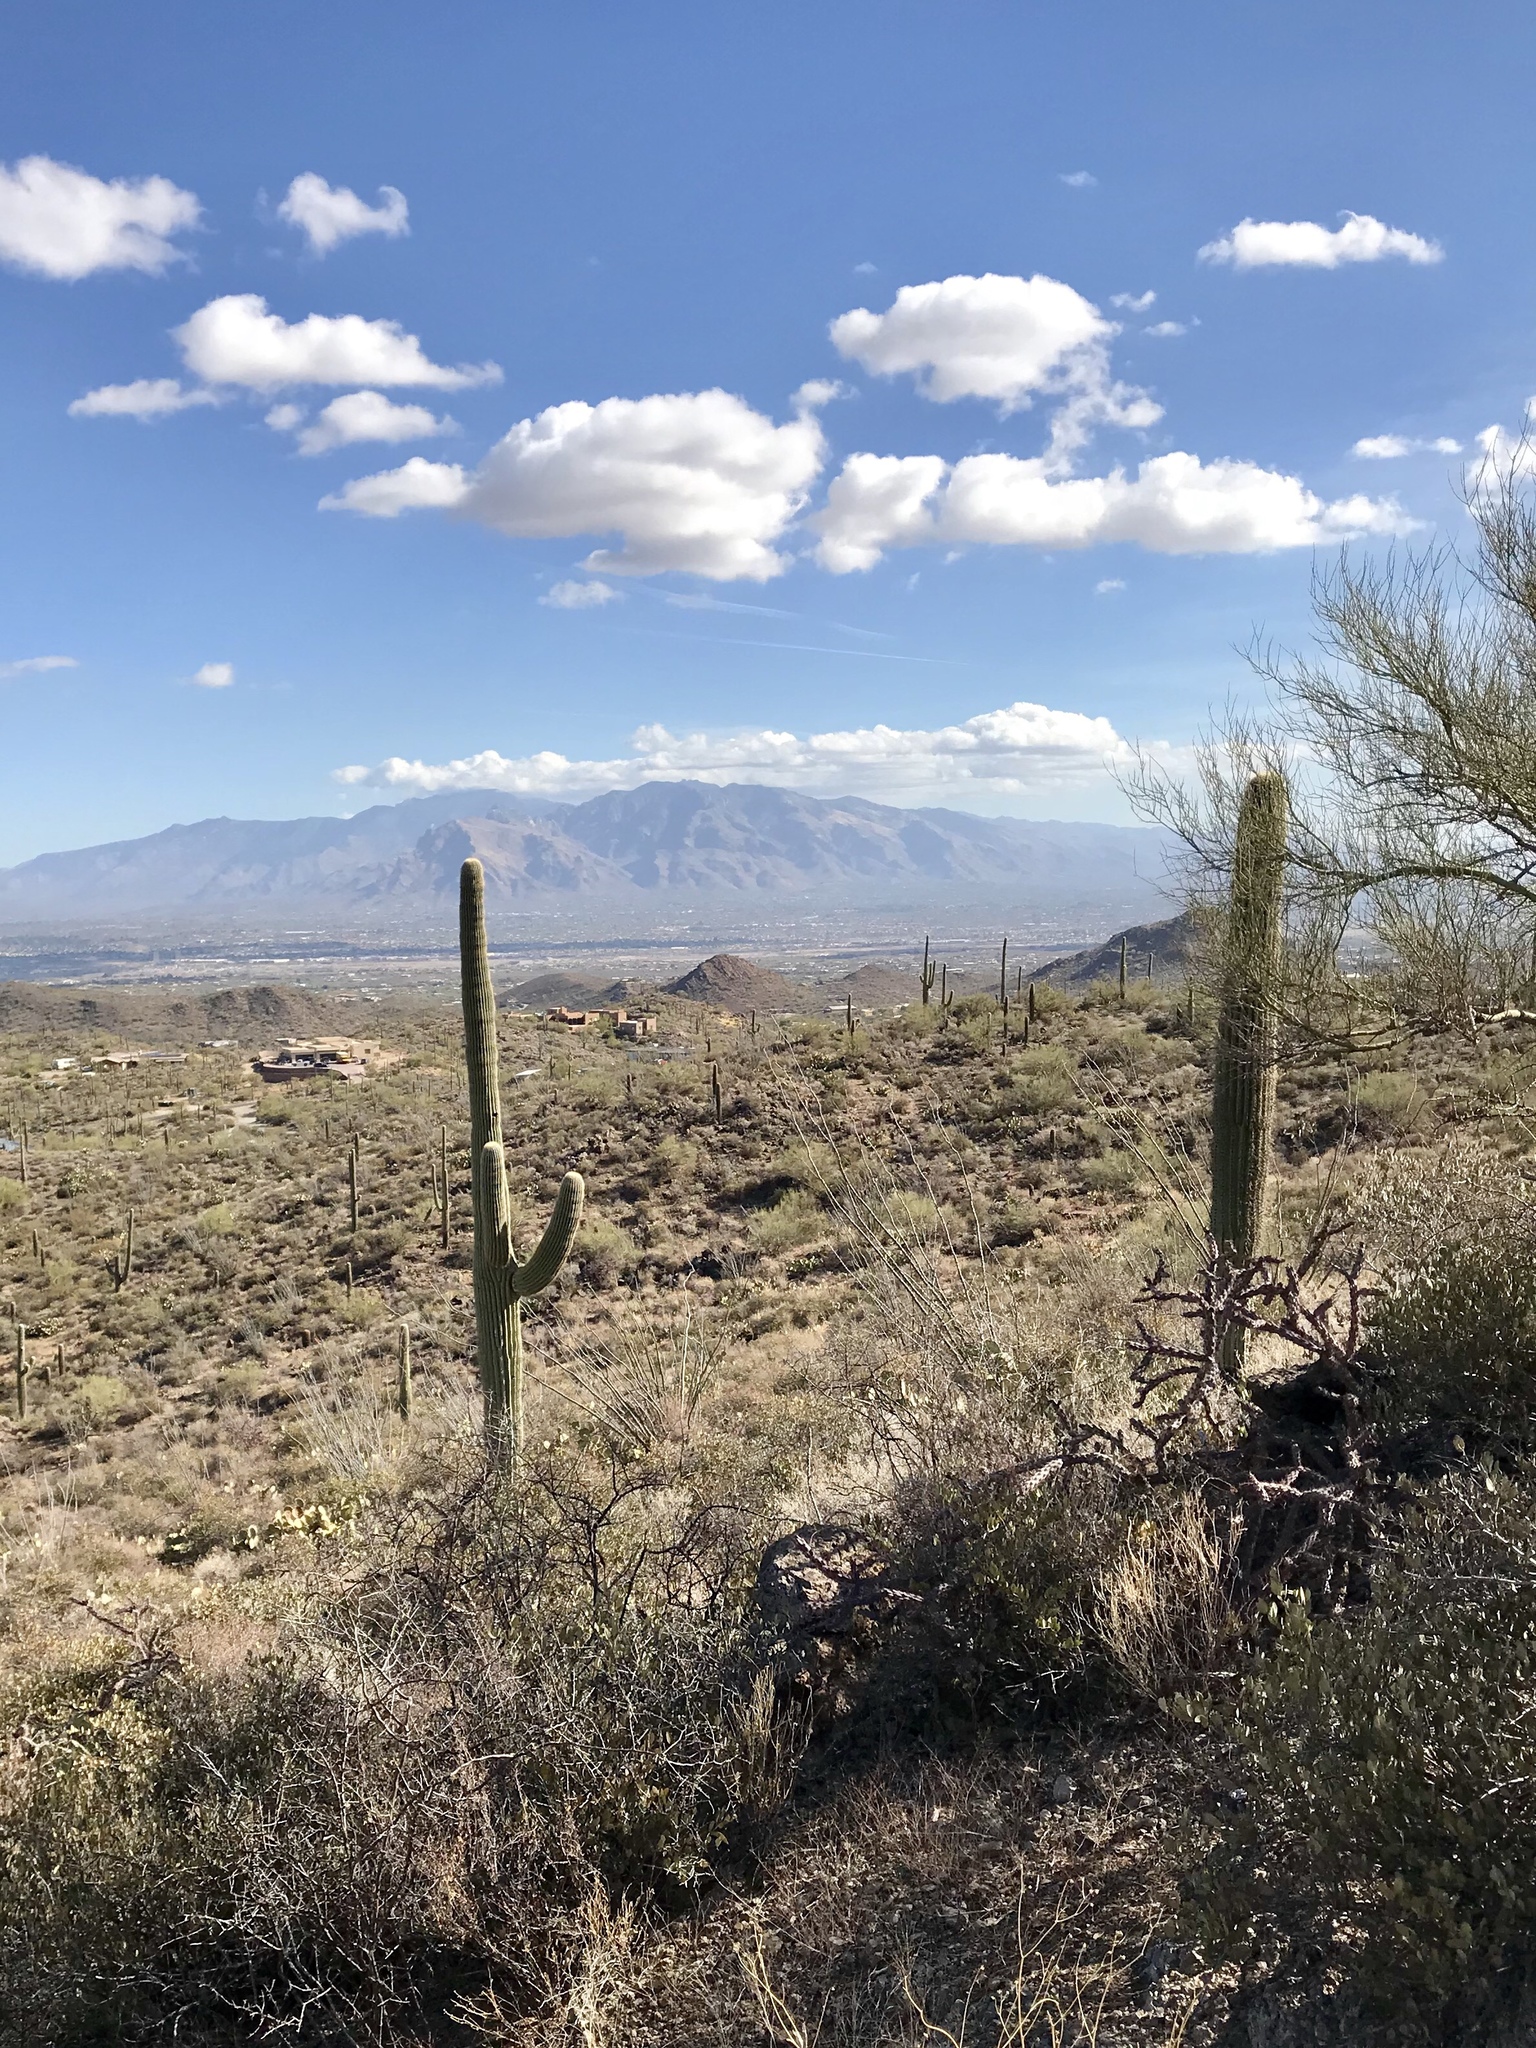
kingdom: Plantae
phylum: Tracheophyta
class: Magnoliopsida
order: Caryophyllales
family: Cactaceae
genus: Carnegiea
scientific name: Carnegiea gigantea
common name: Saguaro
